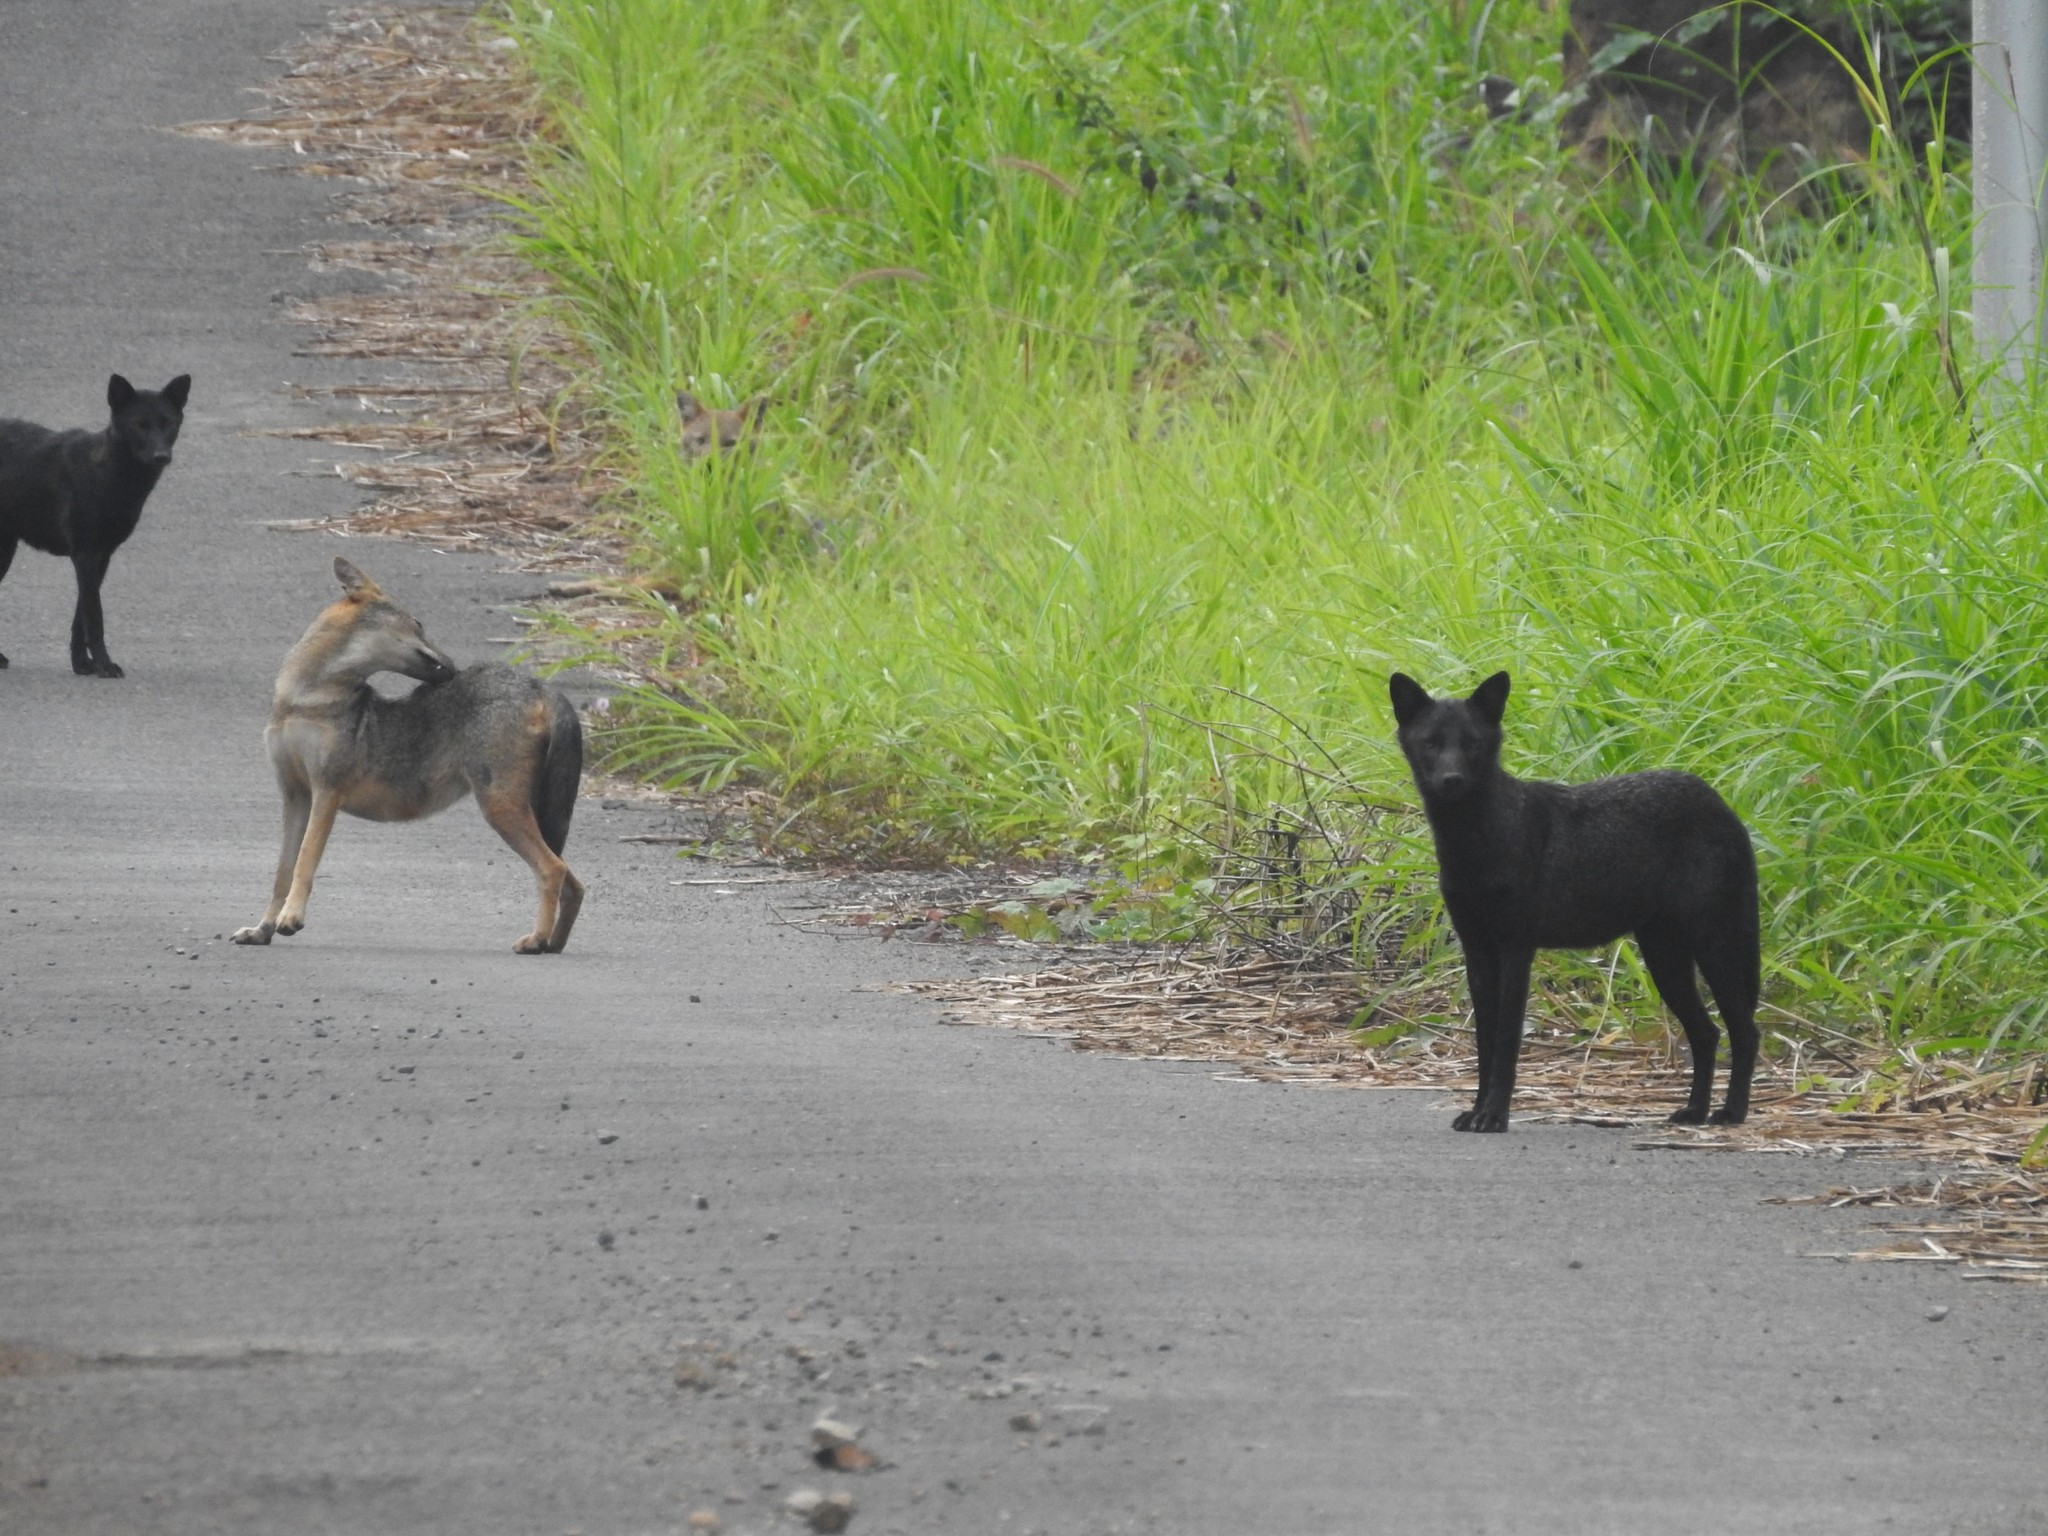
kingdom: Animalia
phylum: Chordata
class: Mammalia
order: Carnivora
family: Canidae
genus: Canis
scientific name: Canis aureus
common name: Golden jackal
